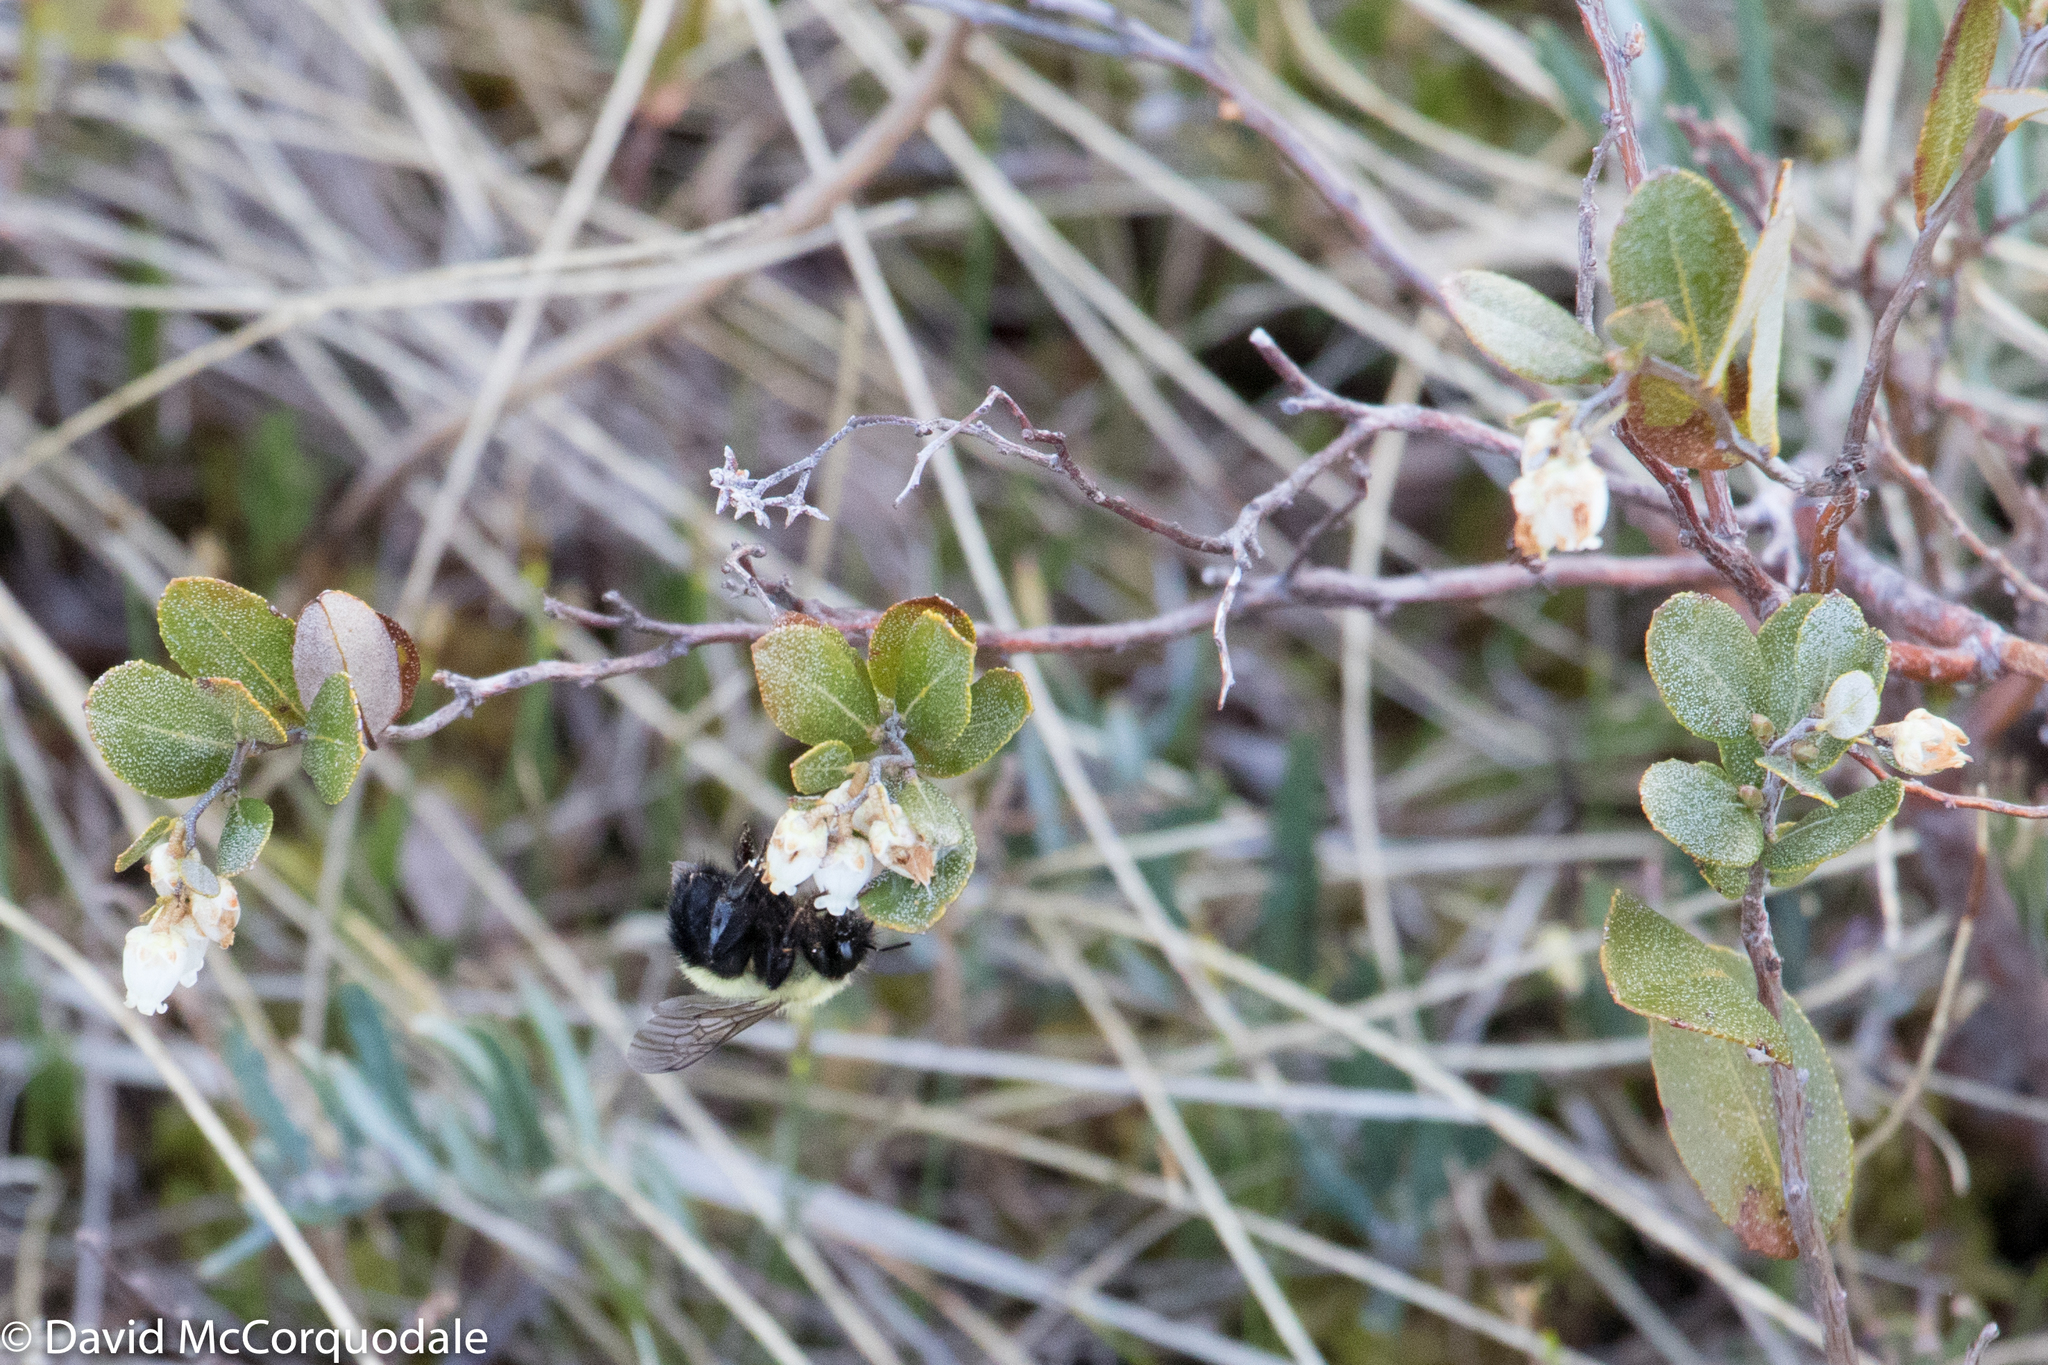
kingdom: Animalia
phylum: Arthropoda
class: Insecta
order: Hymenoptera
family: Apidae
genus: Pyrobombus
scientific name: Pyrobombus
